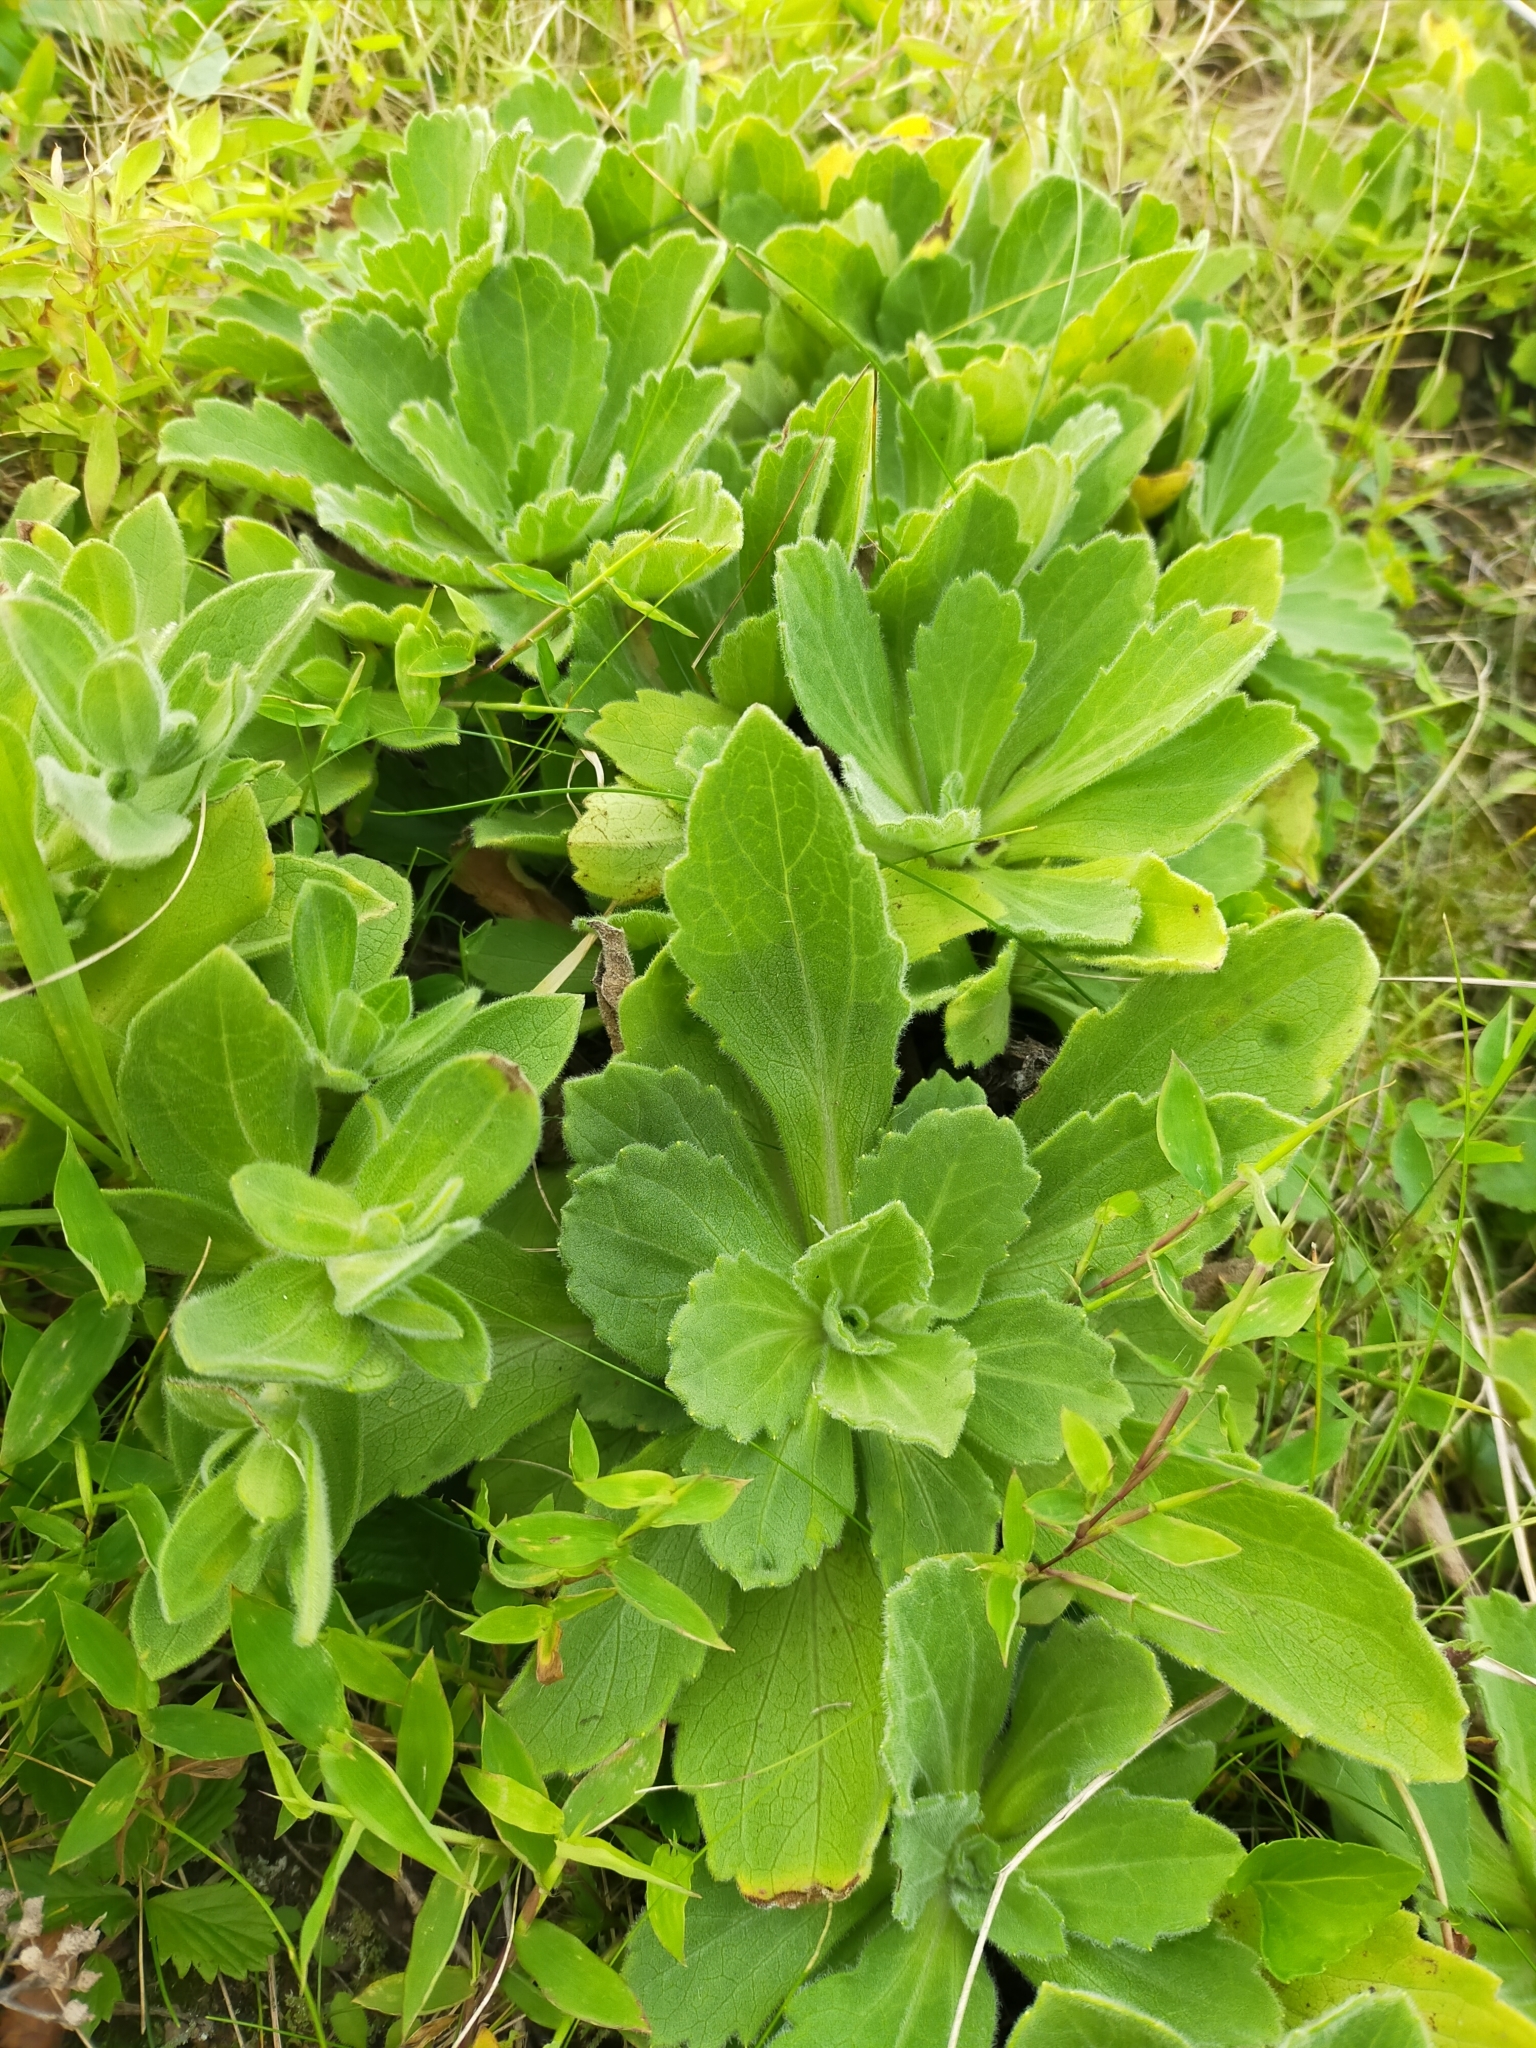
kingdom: Plantae
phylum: Tracheophyta
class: Magnoliopsida
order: Asterales
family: Asteraceae
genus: Jacobaea
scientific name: Jacobaea pseudoarnica
